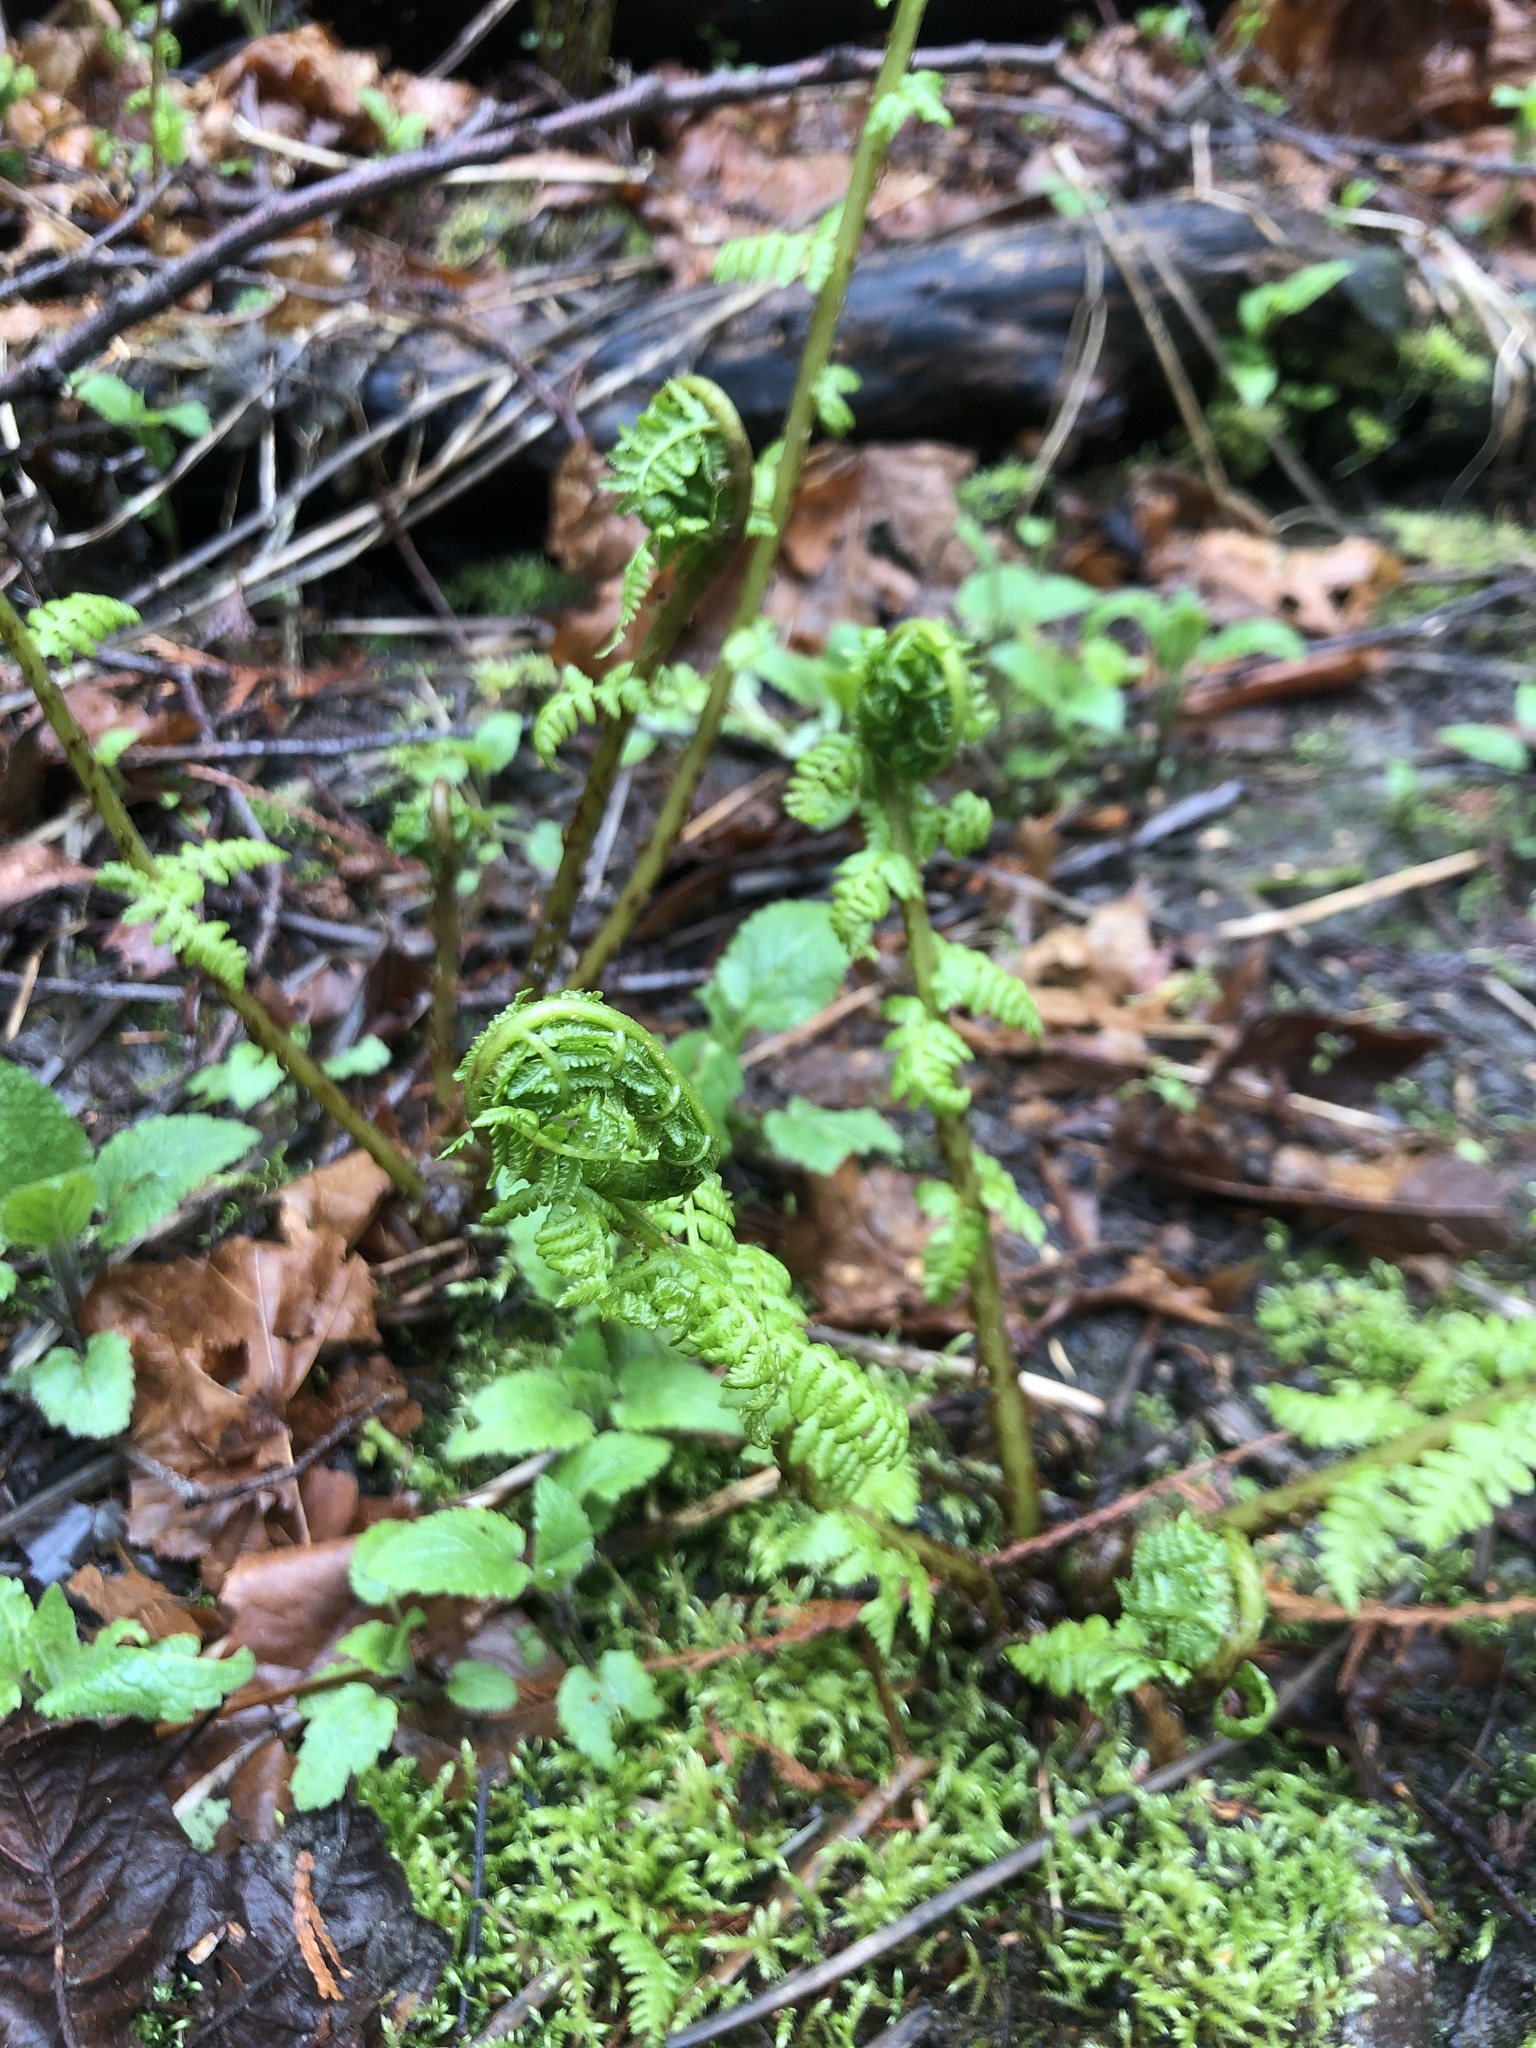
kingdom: Plantae
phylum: Tracheophyta
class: Polypodiopsida
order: Polypodiales
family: Athyriaceae
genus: Athyrium
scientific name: Athyrium cyclosorum
